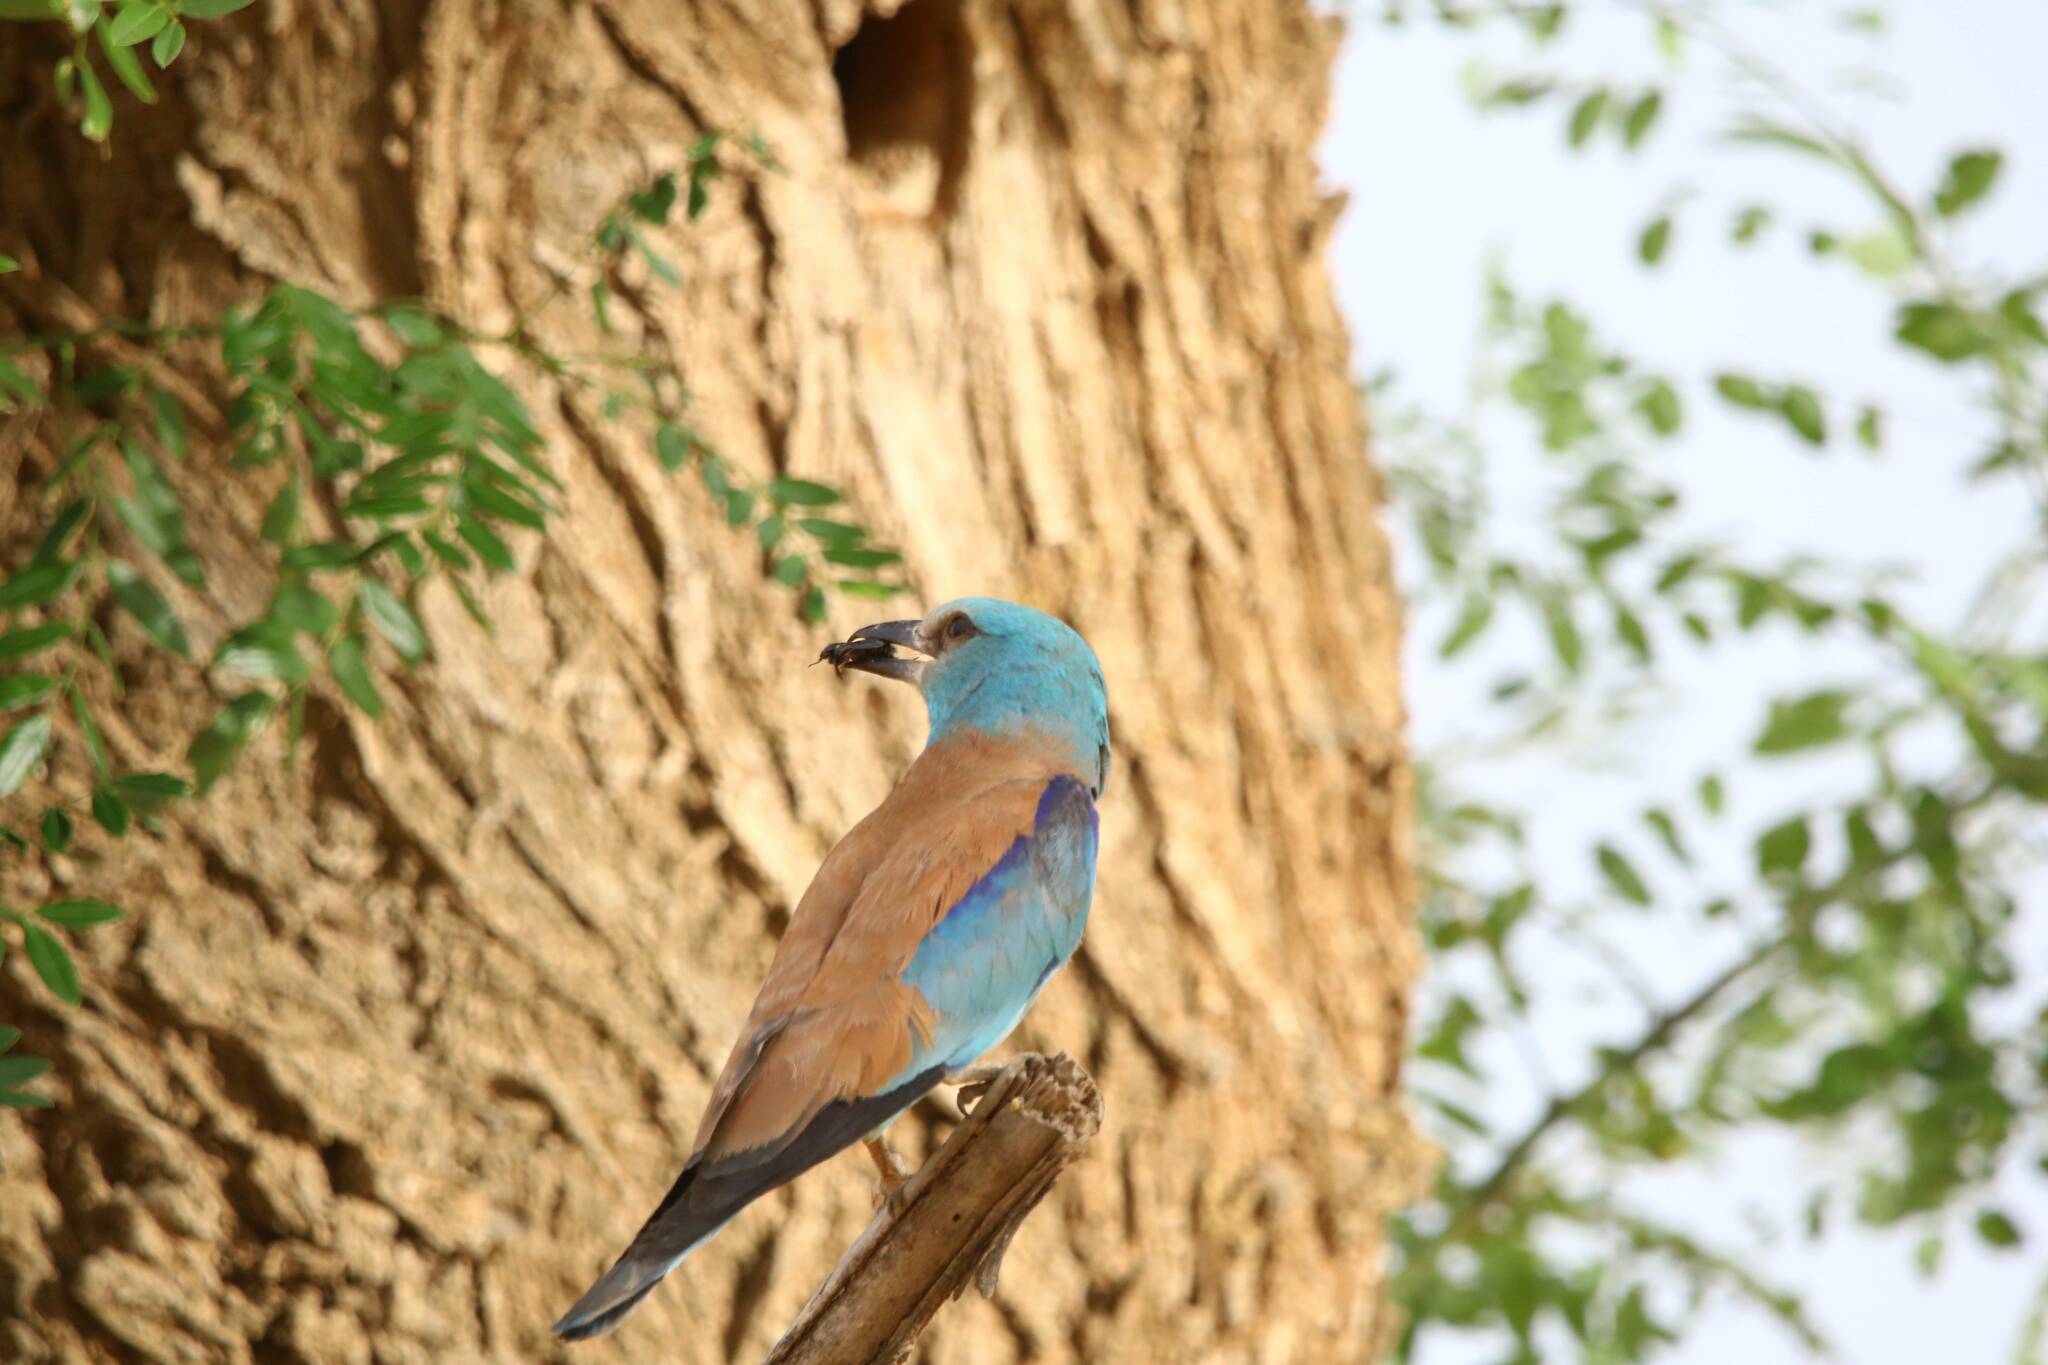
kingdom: Animalia
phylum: Chordata
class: Aves
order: Coraciiformes
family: Coraciidae
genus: Coracias
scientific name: Coracias garrulus
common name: European roller
